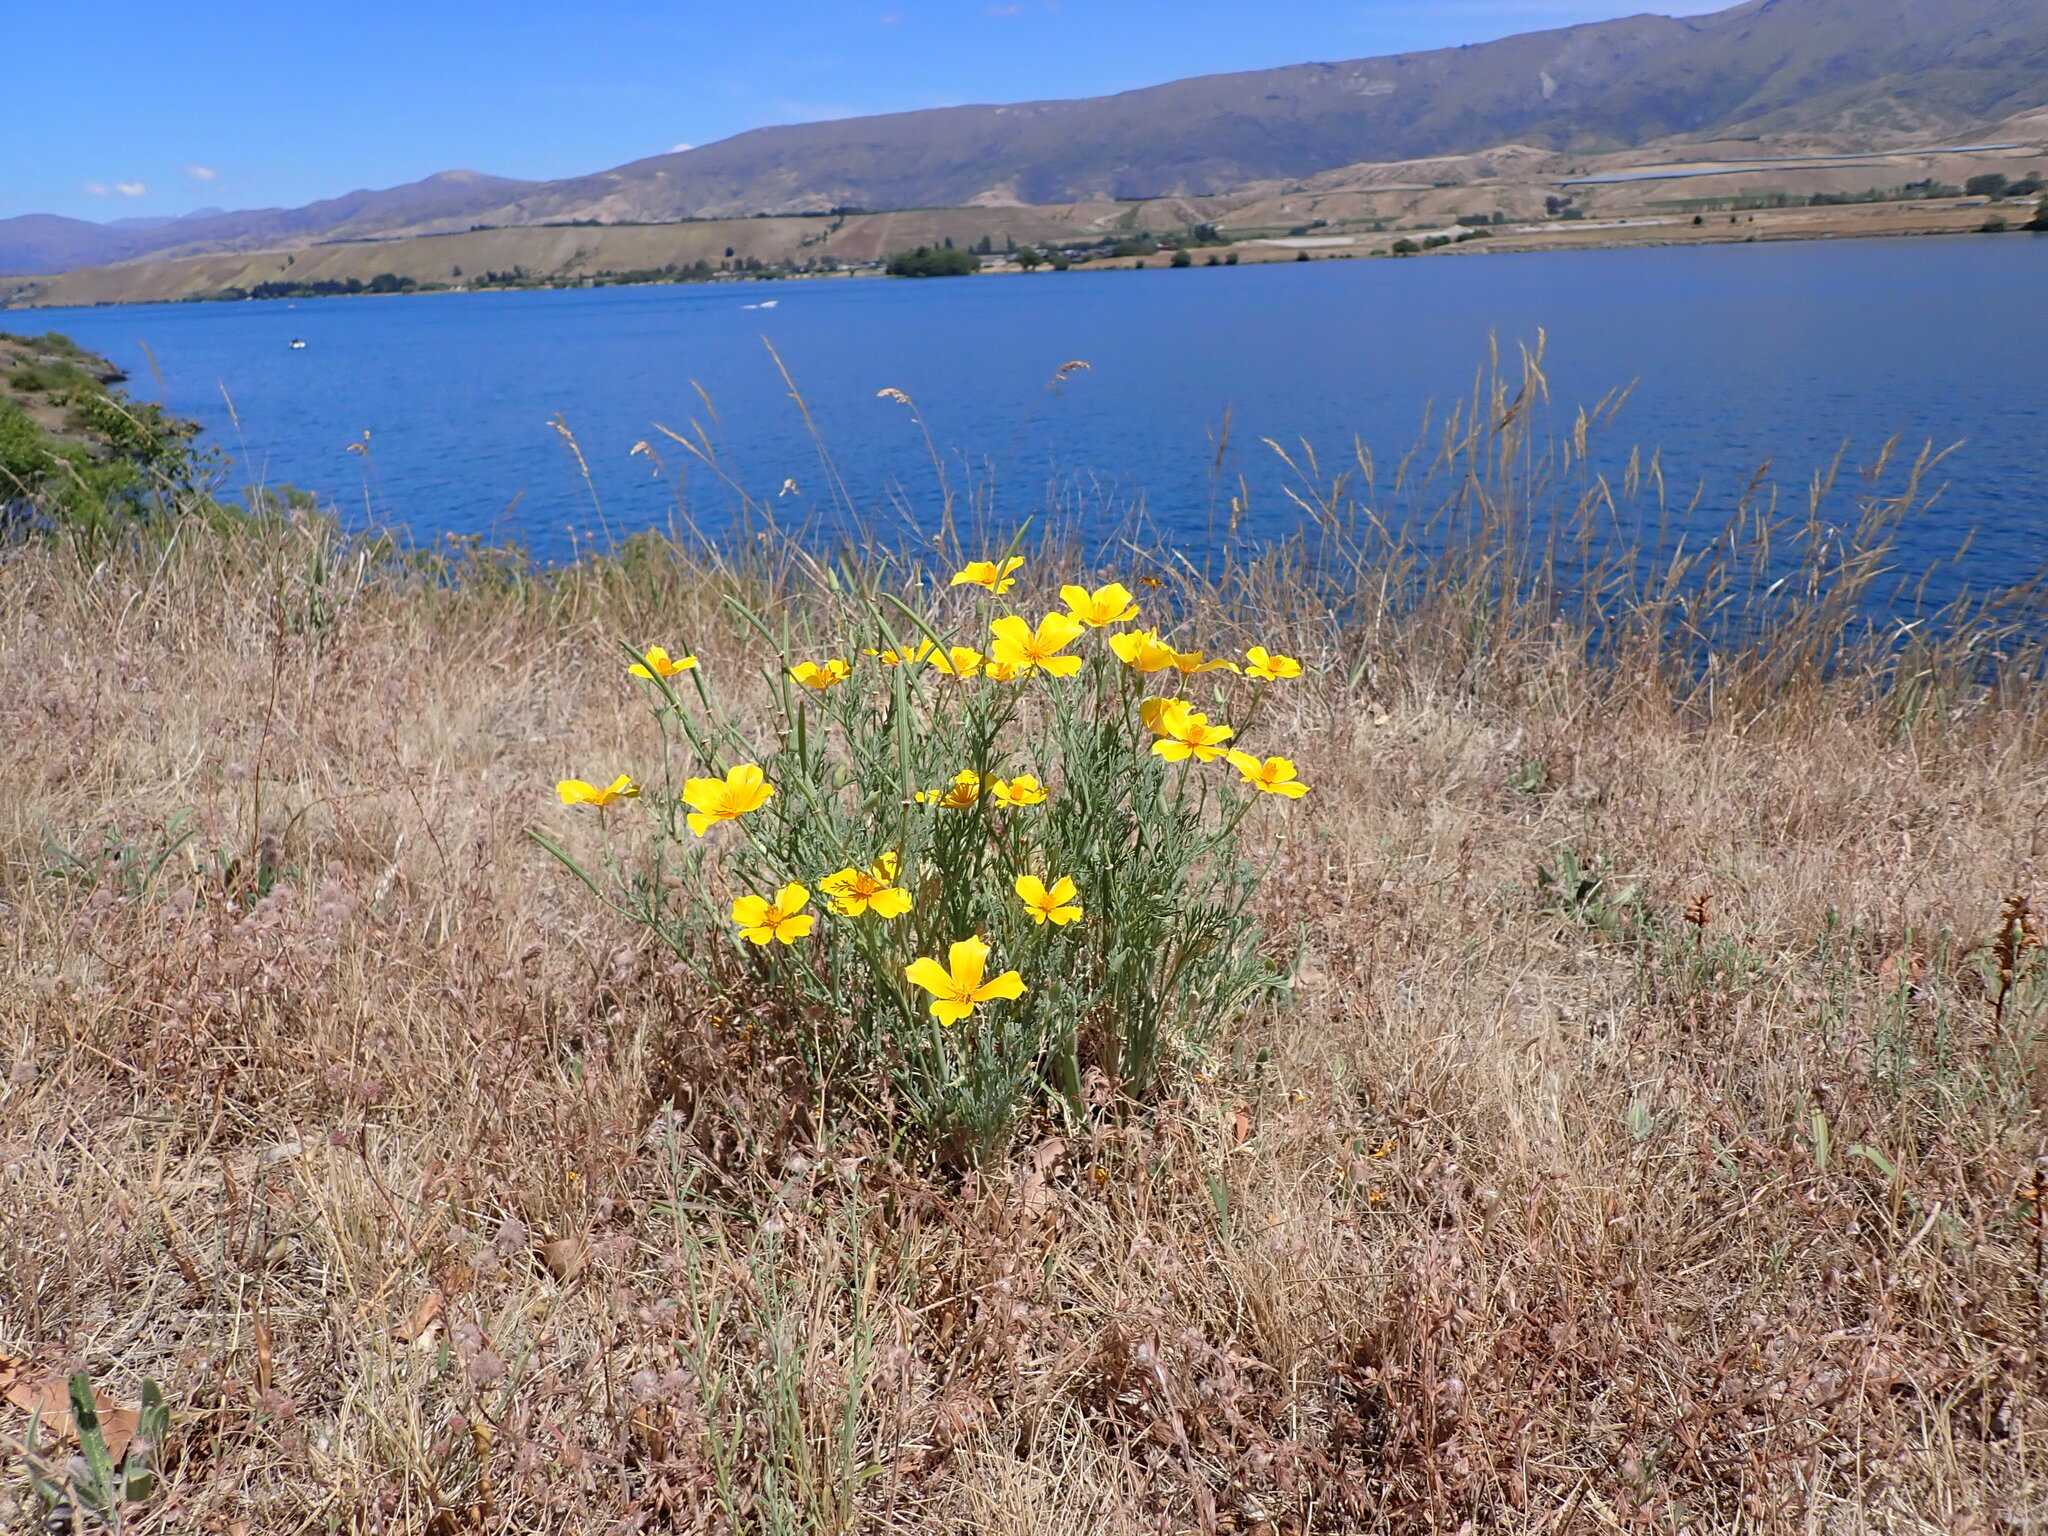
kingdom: Plantae
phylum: Tracheophyta
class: Magnoliopsida
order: Ranunculales
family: Papaveraceae
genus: Eschscholzia
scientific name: Eschscholzia californica
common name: California poppy
